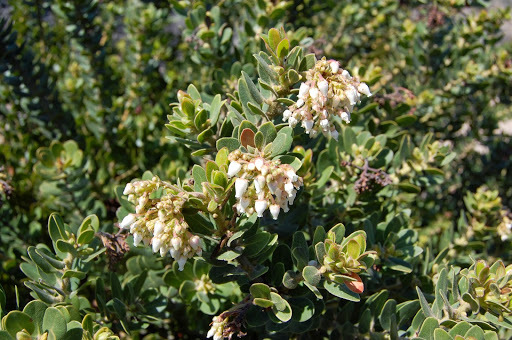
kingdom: Plantae
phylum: Tracheophyta
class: Magnoliopsida
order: Ericales
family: Ericaceae
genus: Arctostaphylos
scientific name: Arctostaphylos confertiflora
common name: Santa rosa island manzanita
